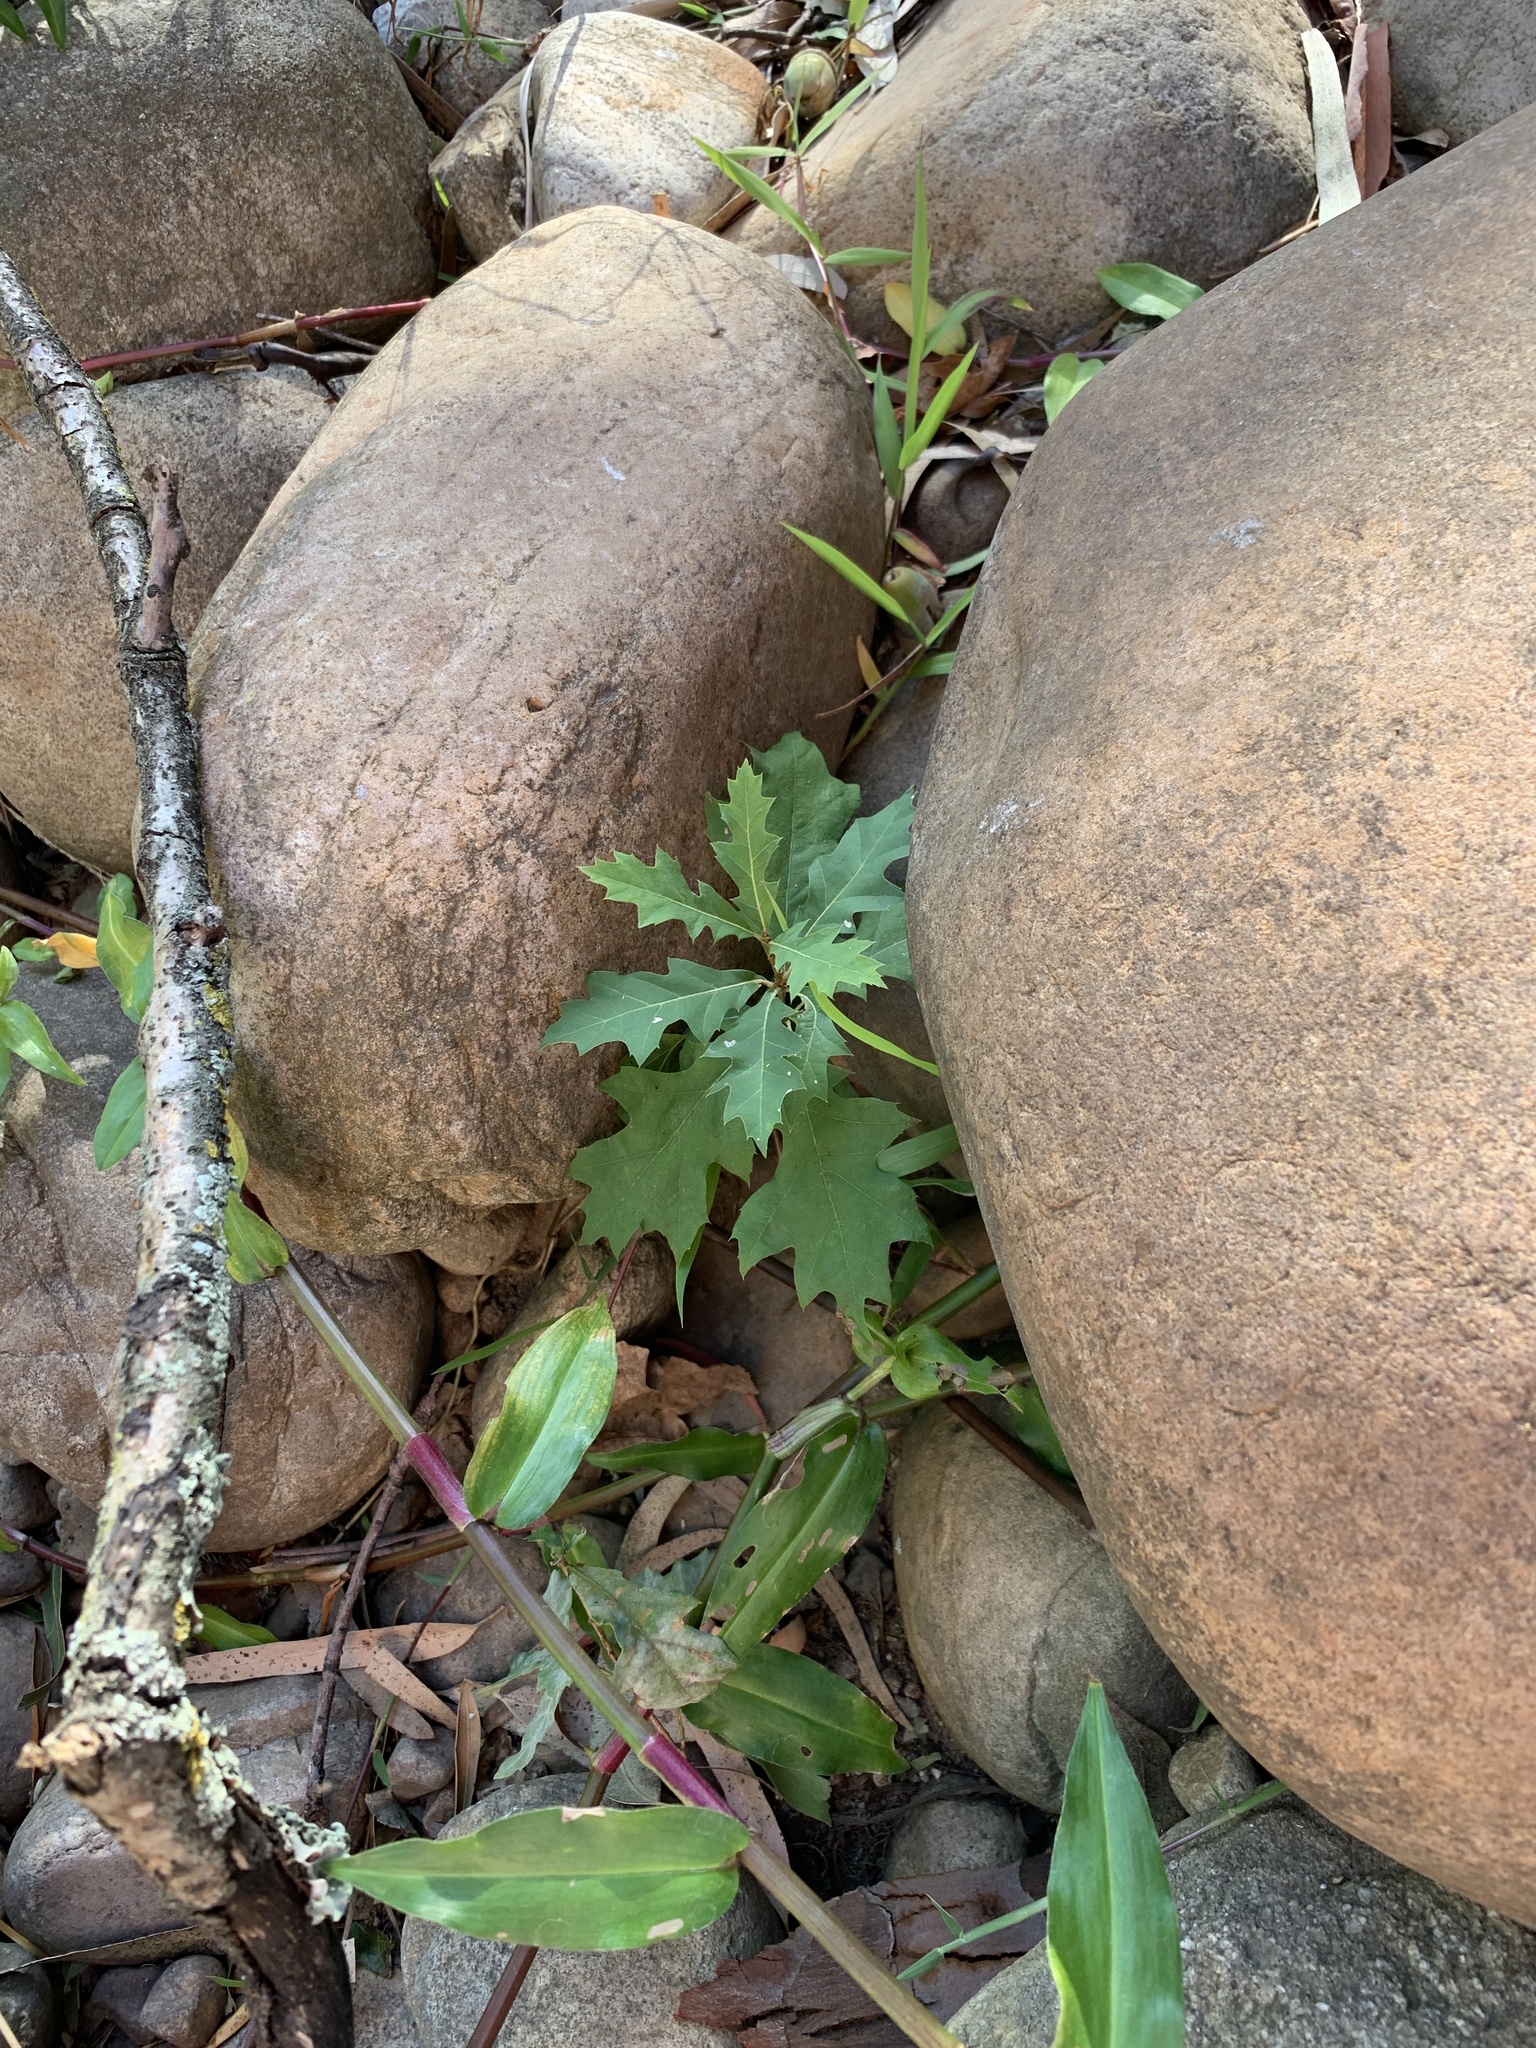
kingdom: Plantae
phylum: Tracheophyta
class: Magnoliopsida
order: Fagales
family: Fagaceae
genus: Quercus
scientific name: Quercus palustris
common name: Pin oak
